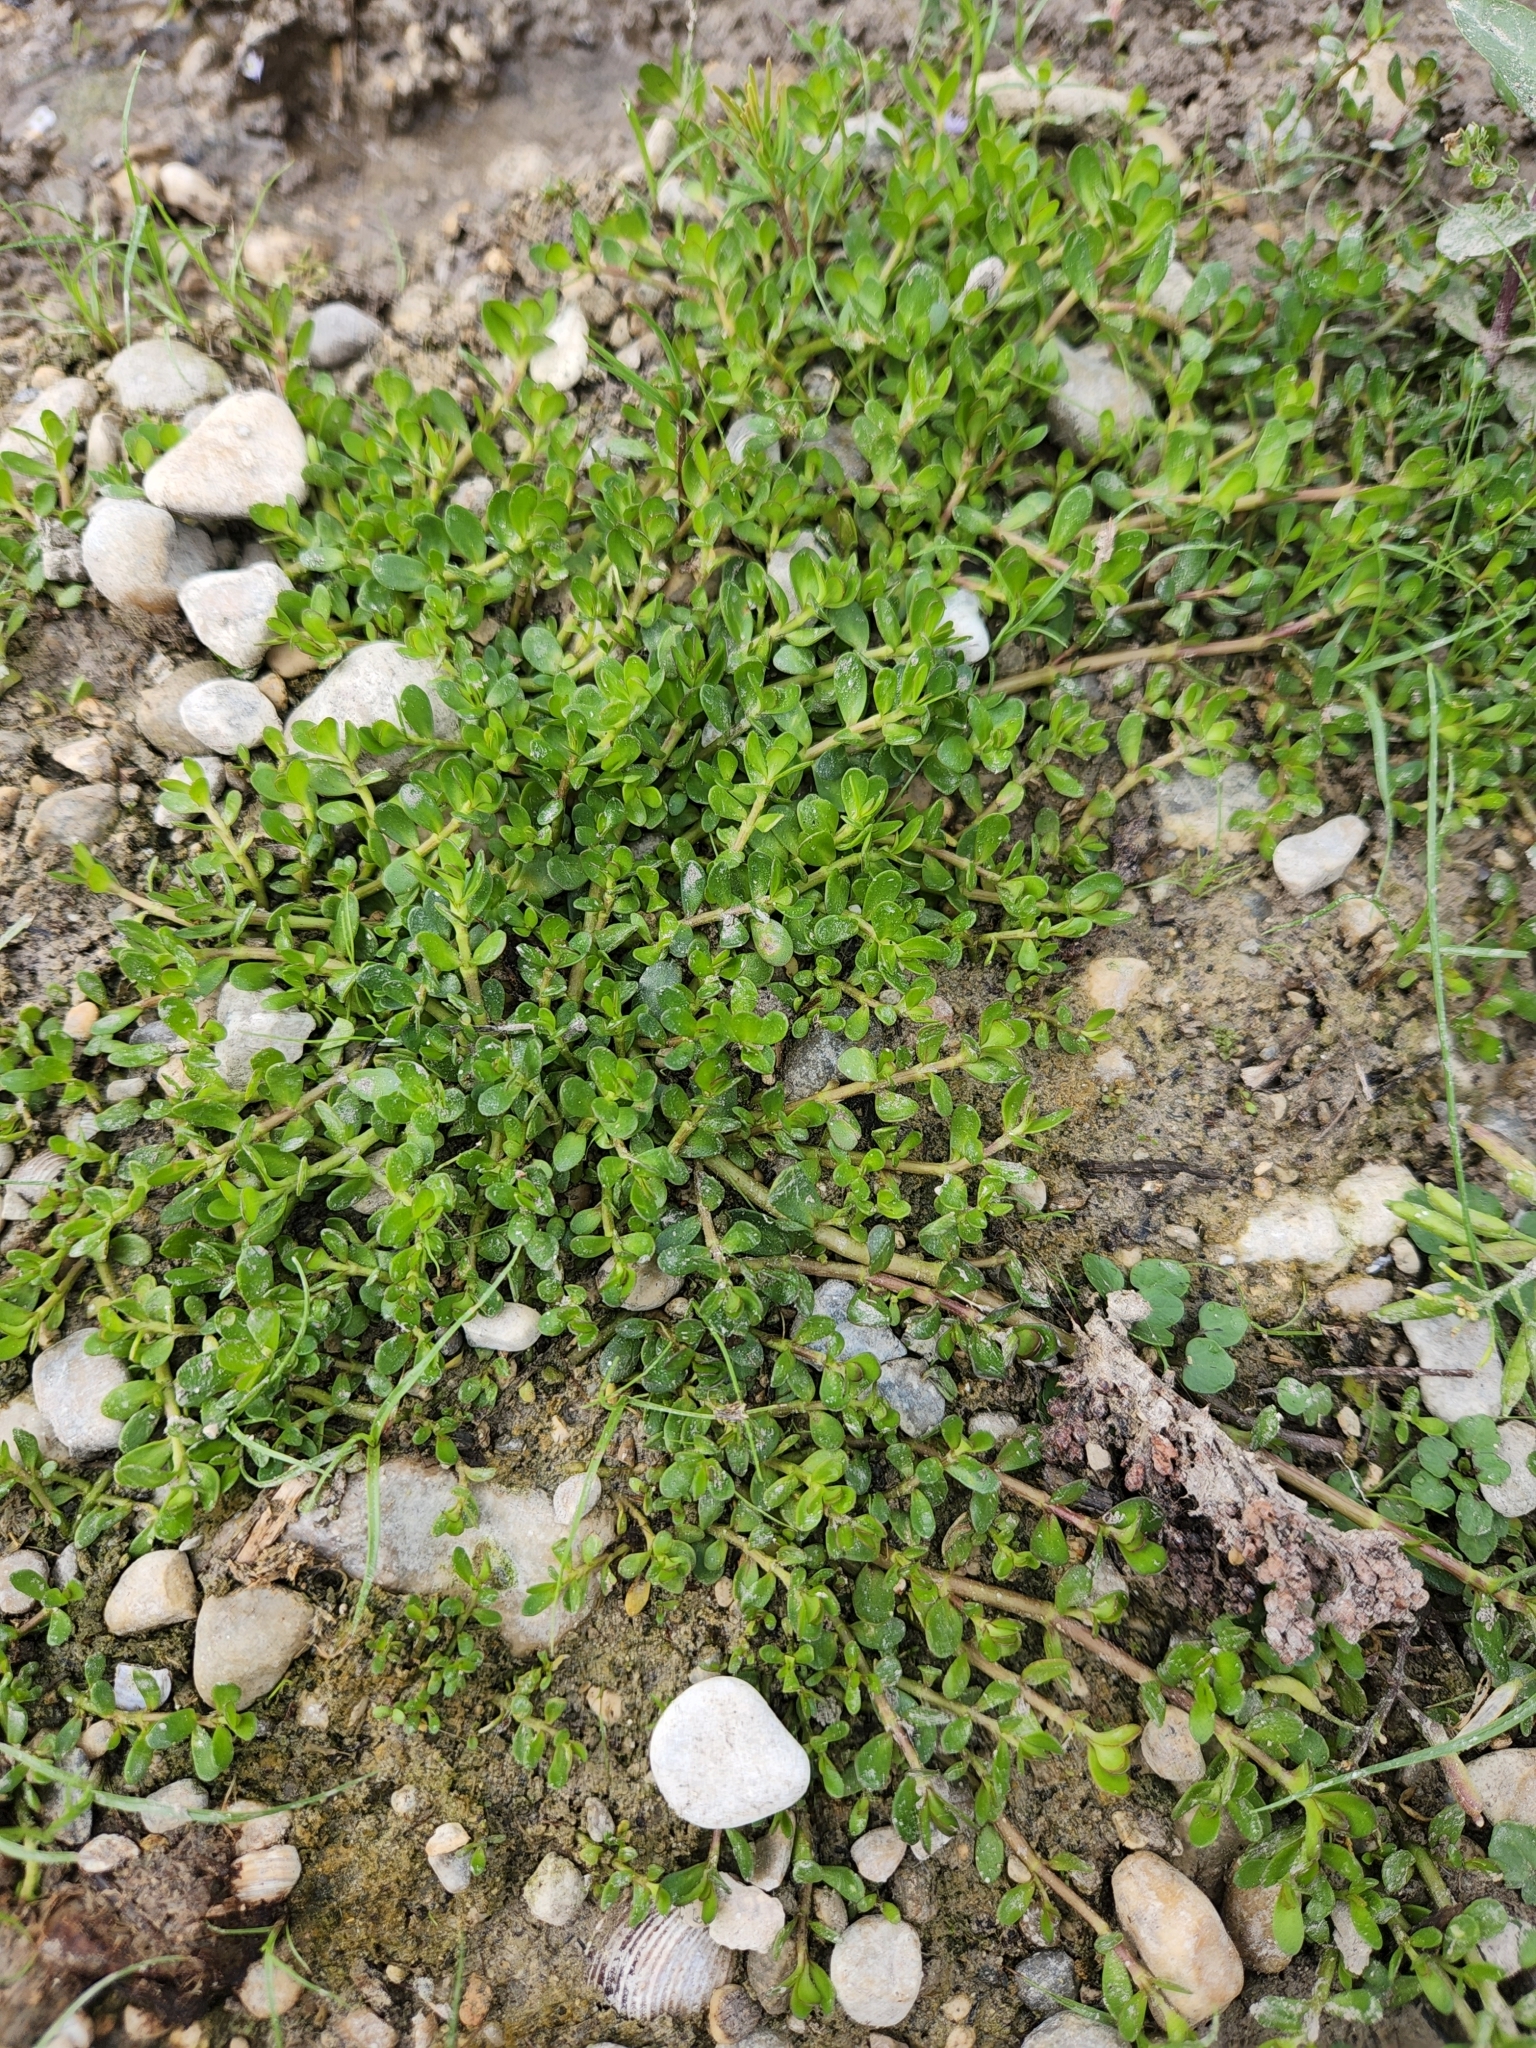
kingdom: Plantae
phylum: Tracheophyta
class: Magnoliopsida
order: Lamiales
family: Plantaginaceae
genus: Bacopa
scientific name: Bacopa monnieri
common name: Indian-pennywort
